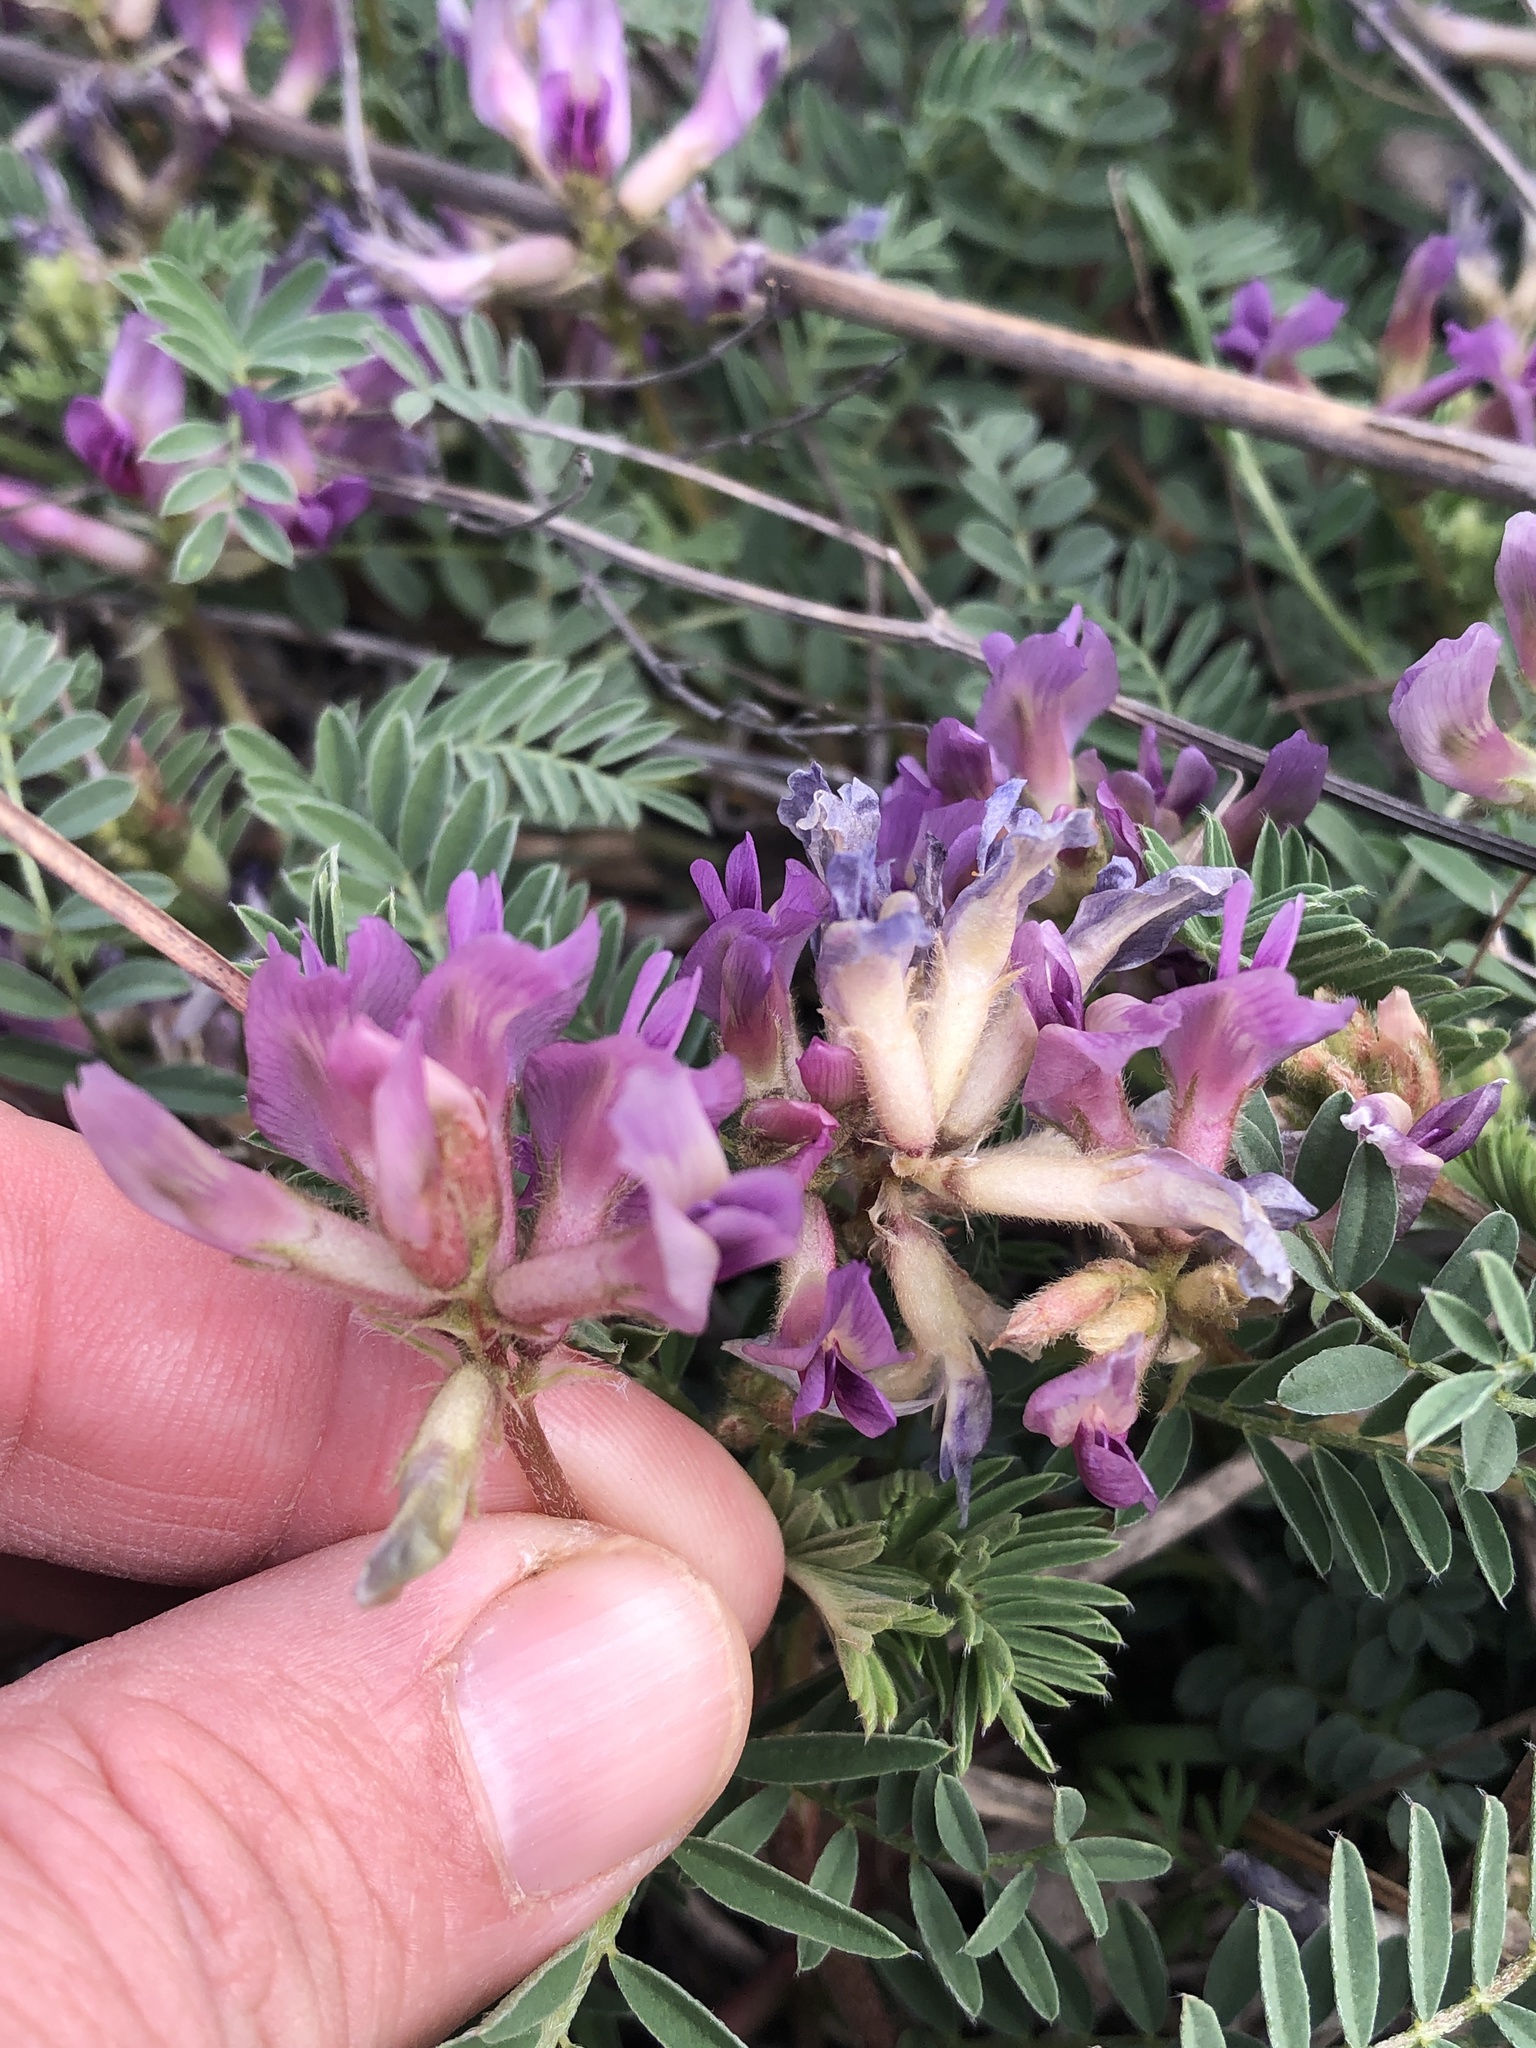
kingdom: Plantae
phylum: Tracheophyta
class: Magnoliopsida
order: Fabales
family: Fabaceae
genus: Astragalus
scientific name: Astragalus crassicarpus
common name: Ground-plum milk-vetch
